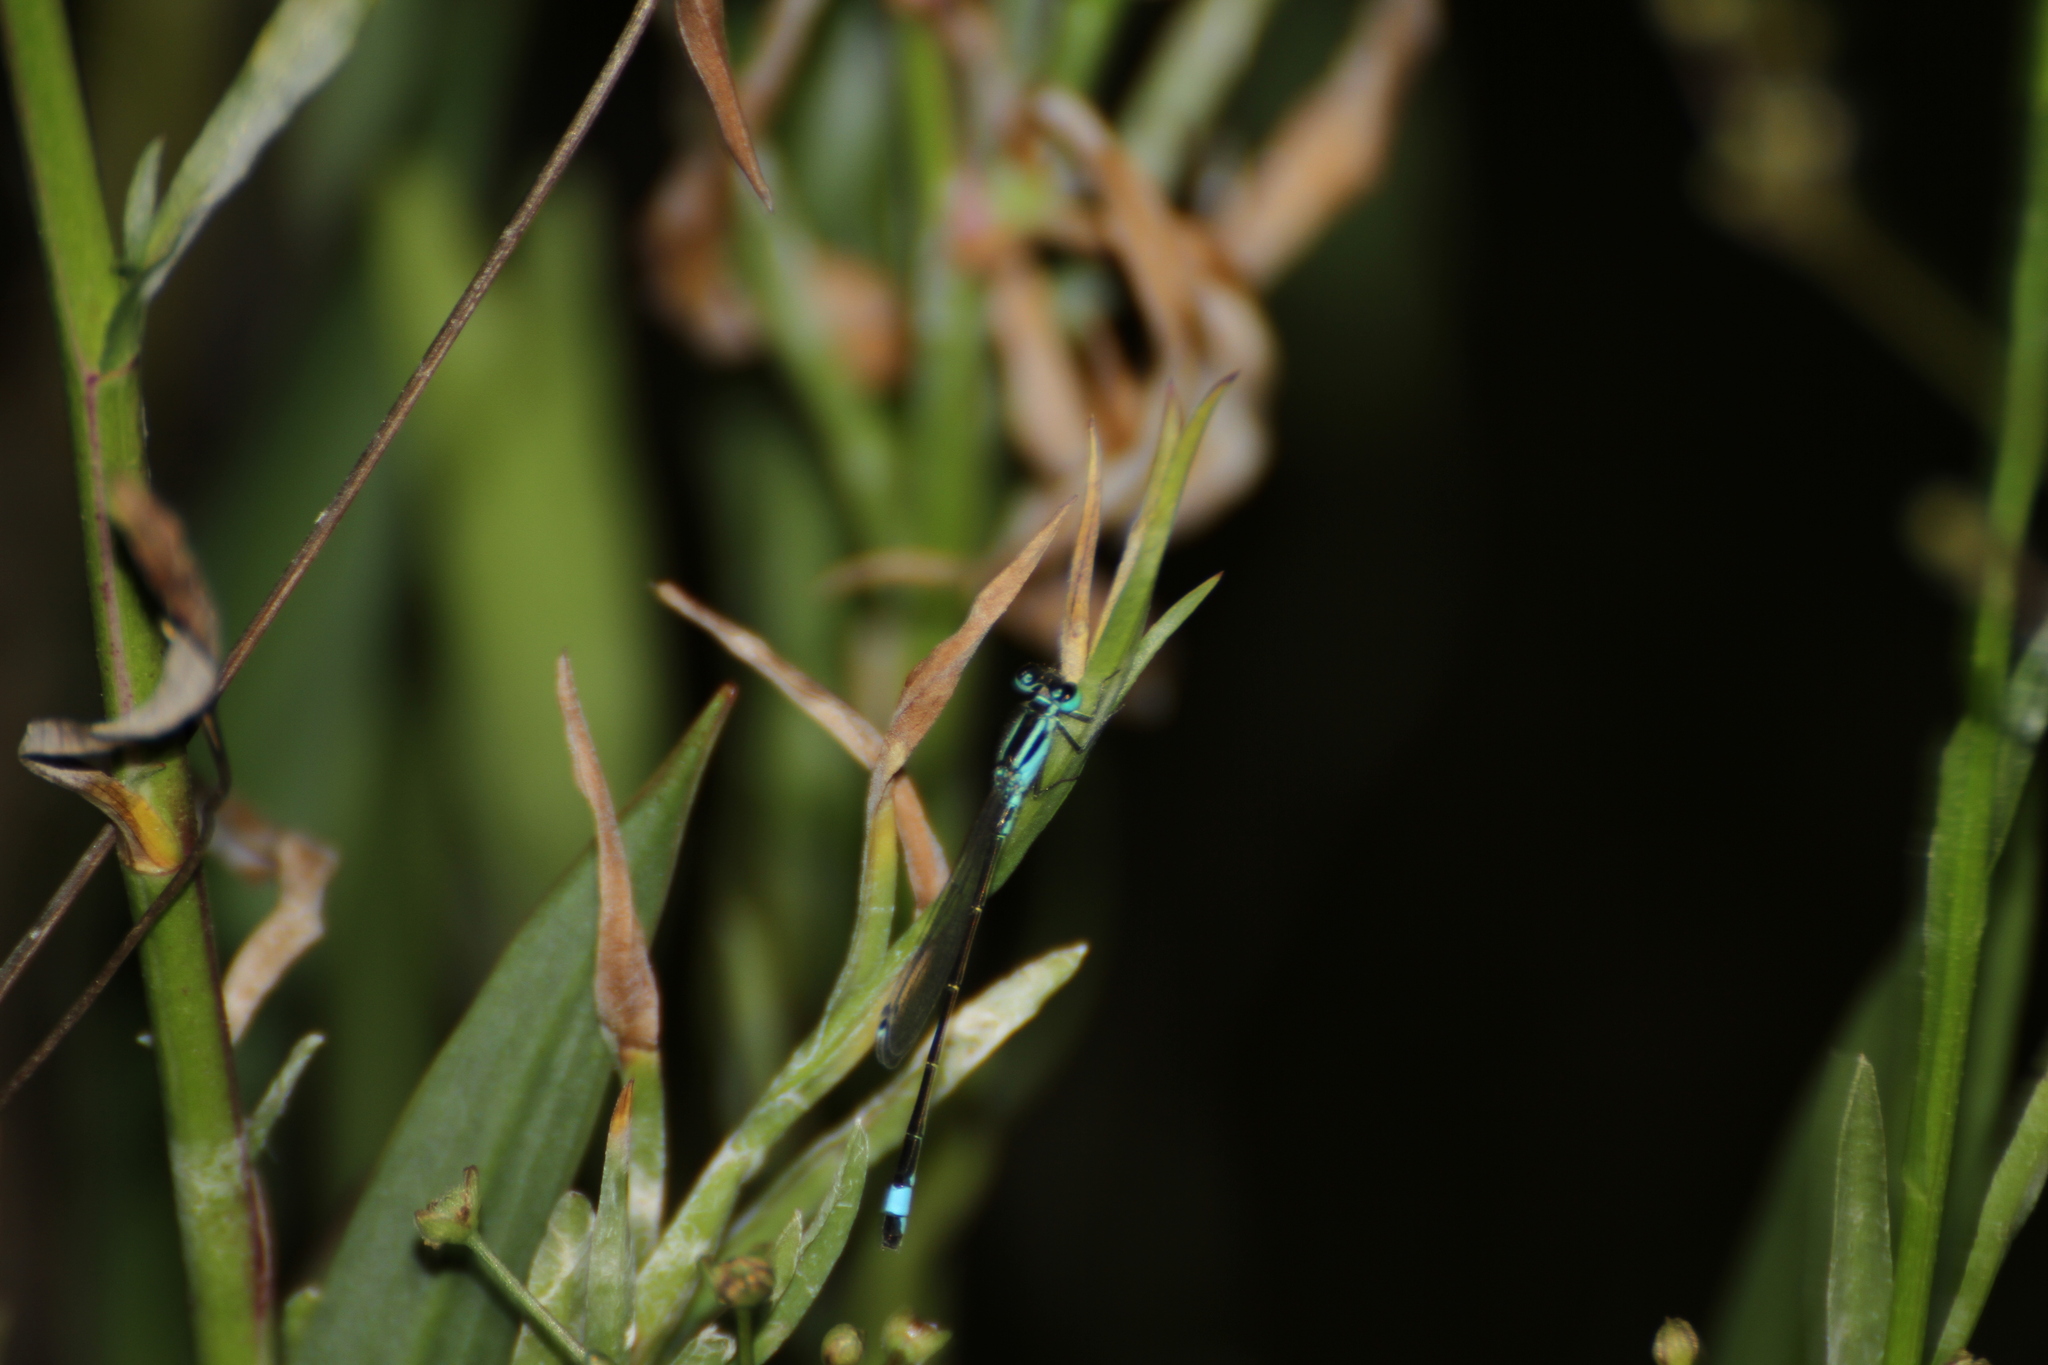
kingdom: Animalia
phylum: Arthropoda
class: Insecta
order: Odonata
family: Coenagrionidae
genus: Ischnura
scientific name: Ischnura elegans
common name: Blue-tailed damselfly
